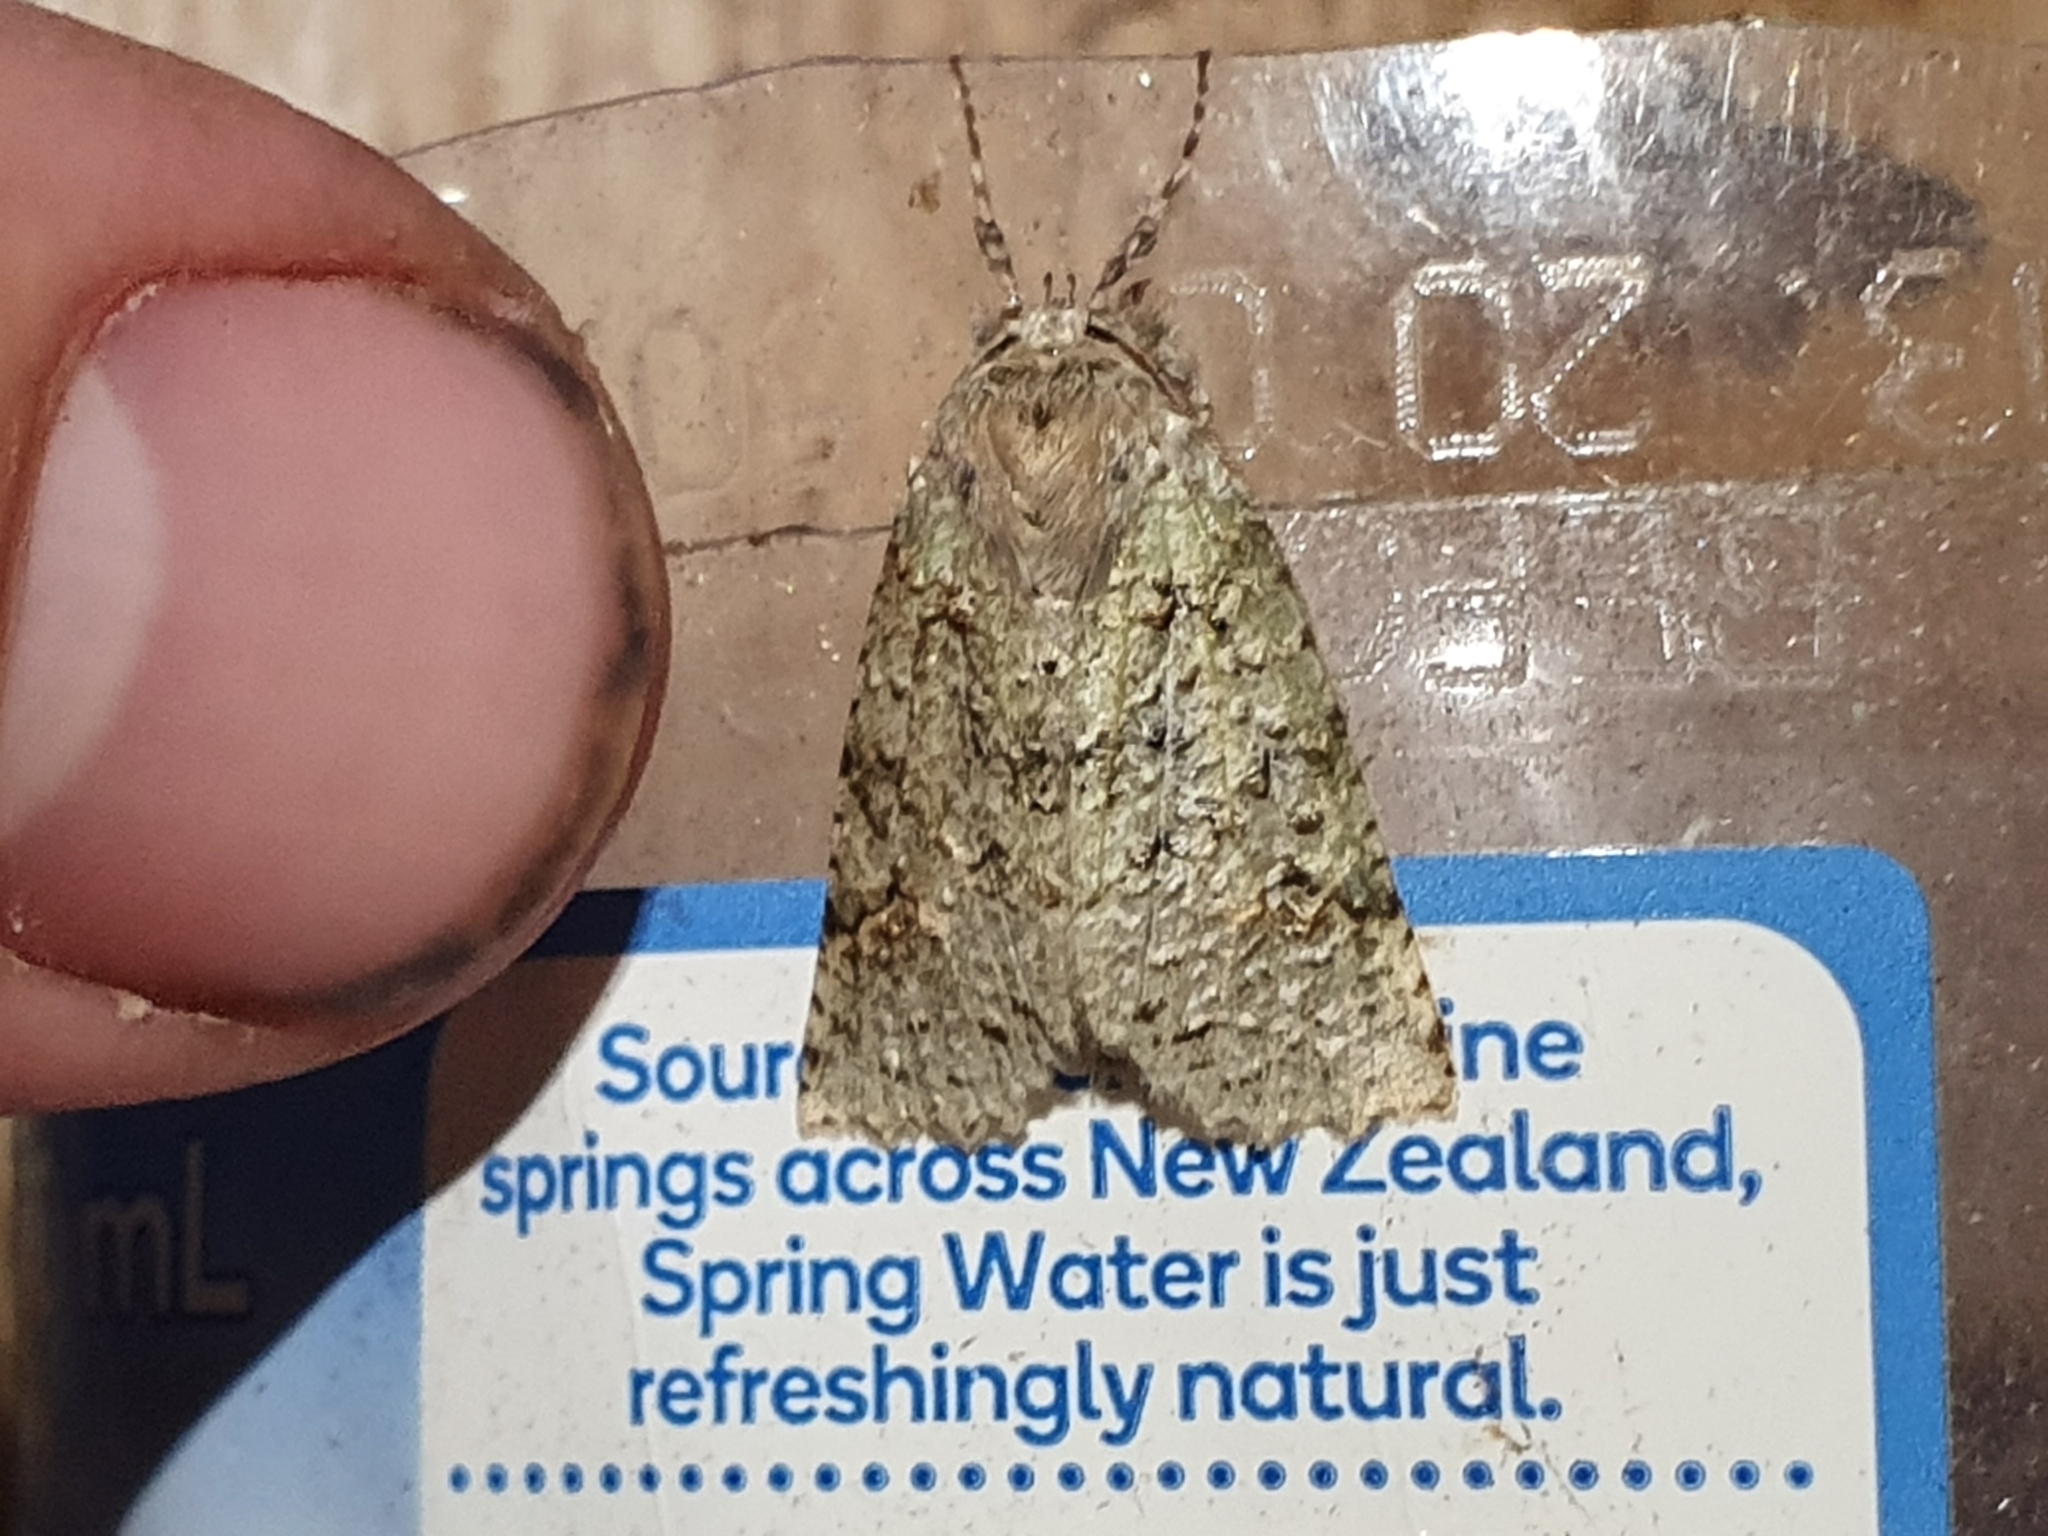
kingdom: Animalia
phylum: Arthropoda
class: Insecta
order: Lepidoptera
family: Geometridae
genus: Declana
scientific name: Declana floccosa
